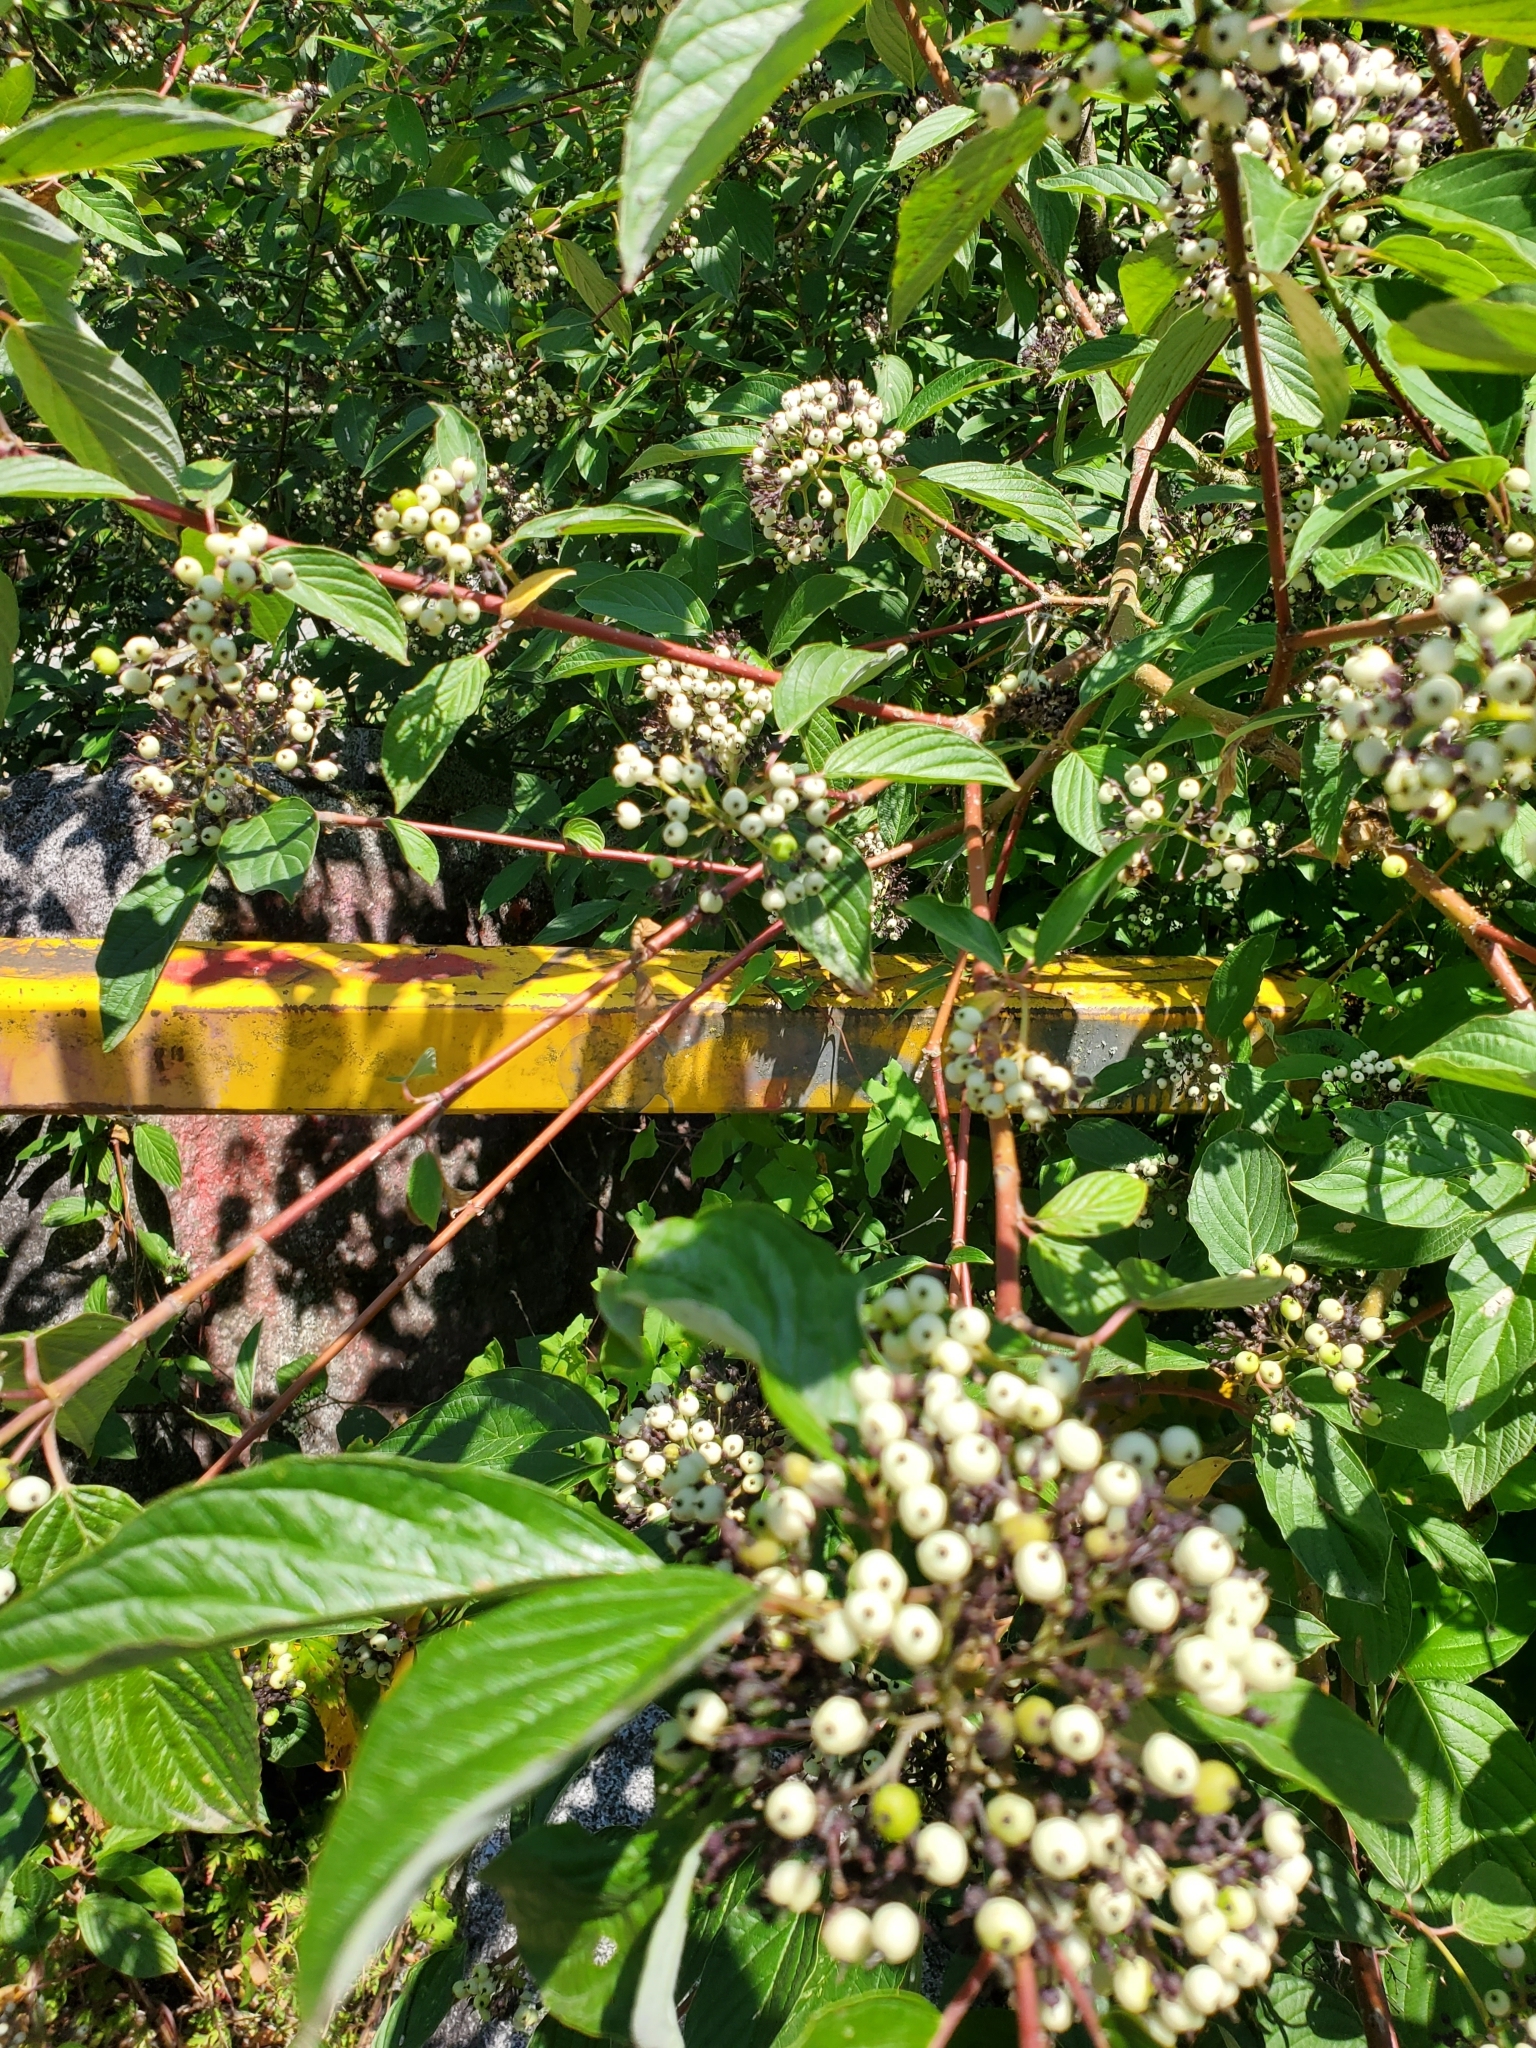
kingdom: Plantae
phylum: Tracheophyta
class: Magnoliopsida
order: Cornales
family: Cornaceae
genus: Cornus
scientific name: Cornus sericea
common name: Red-osier dogwood
